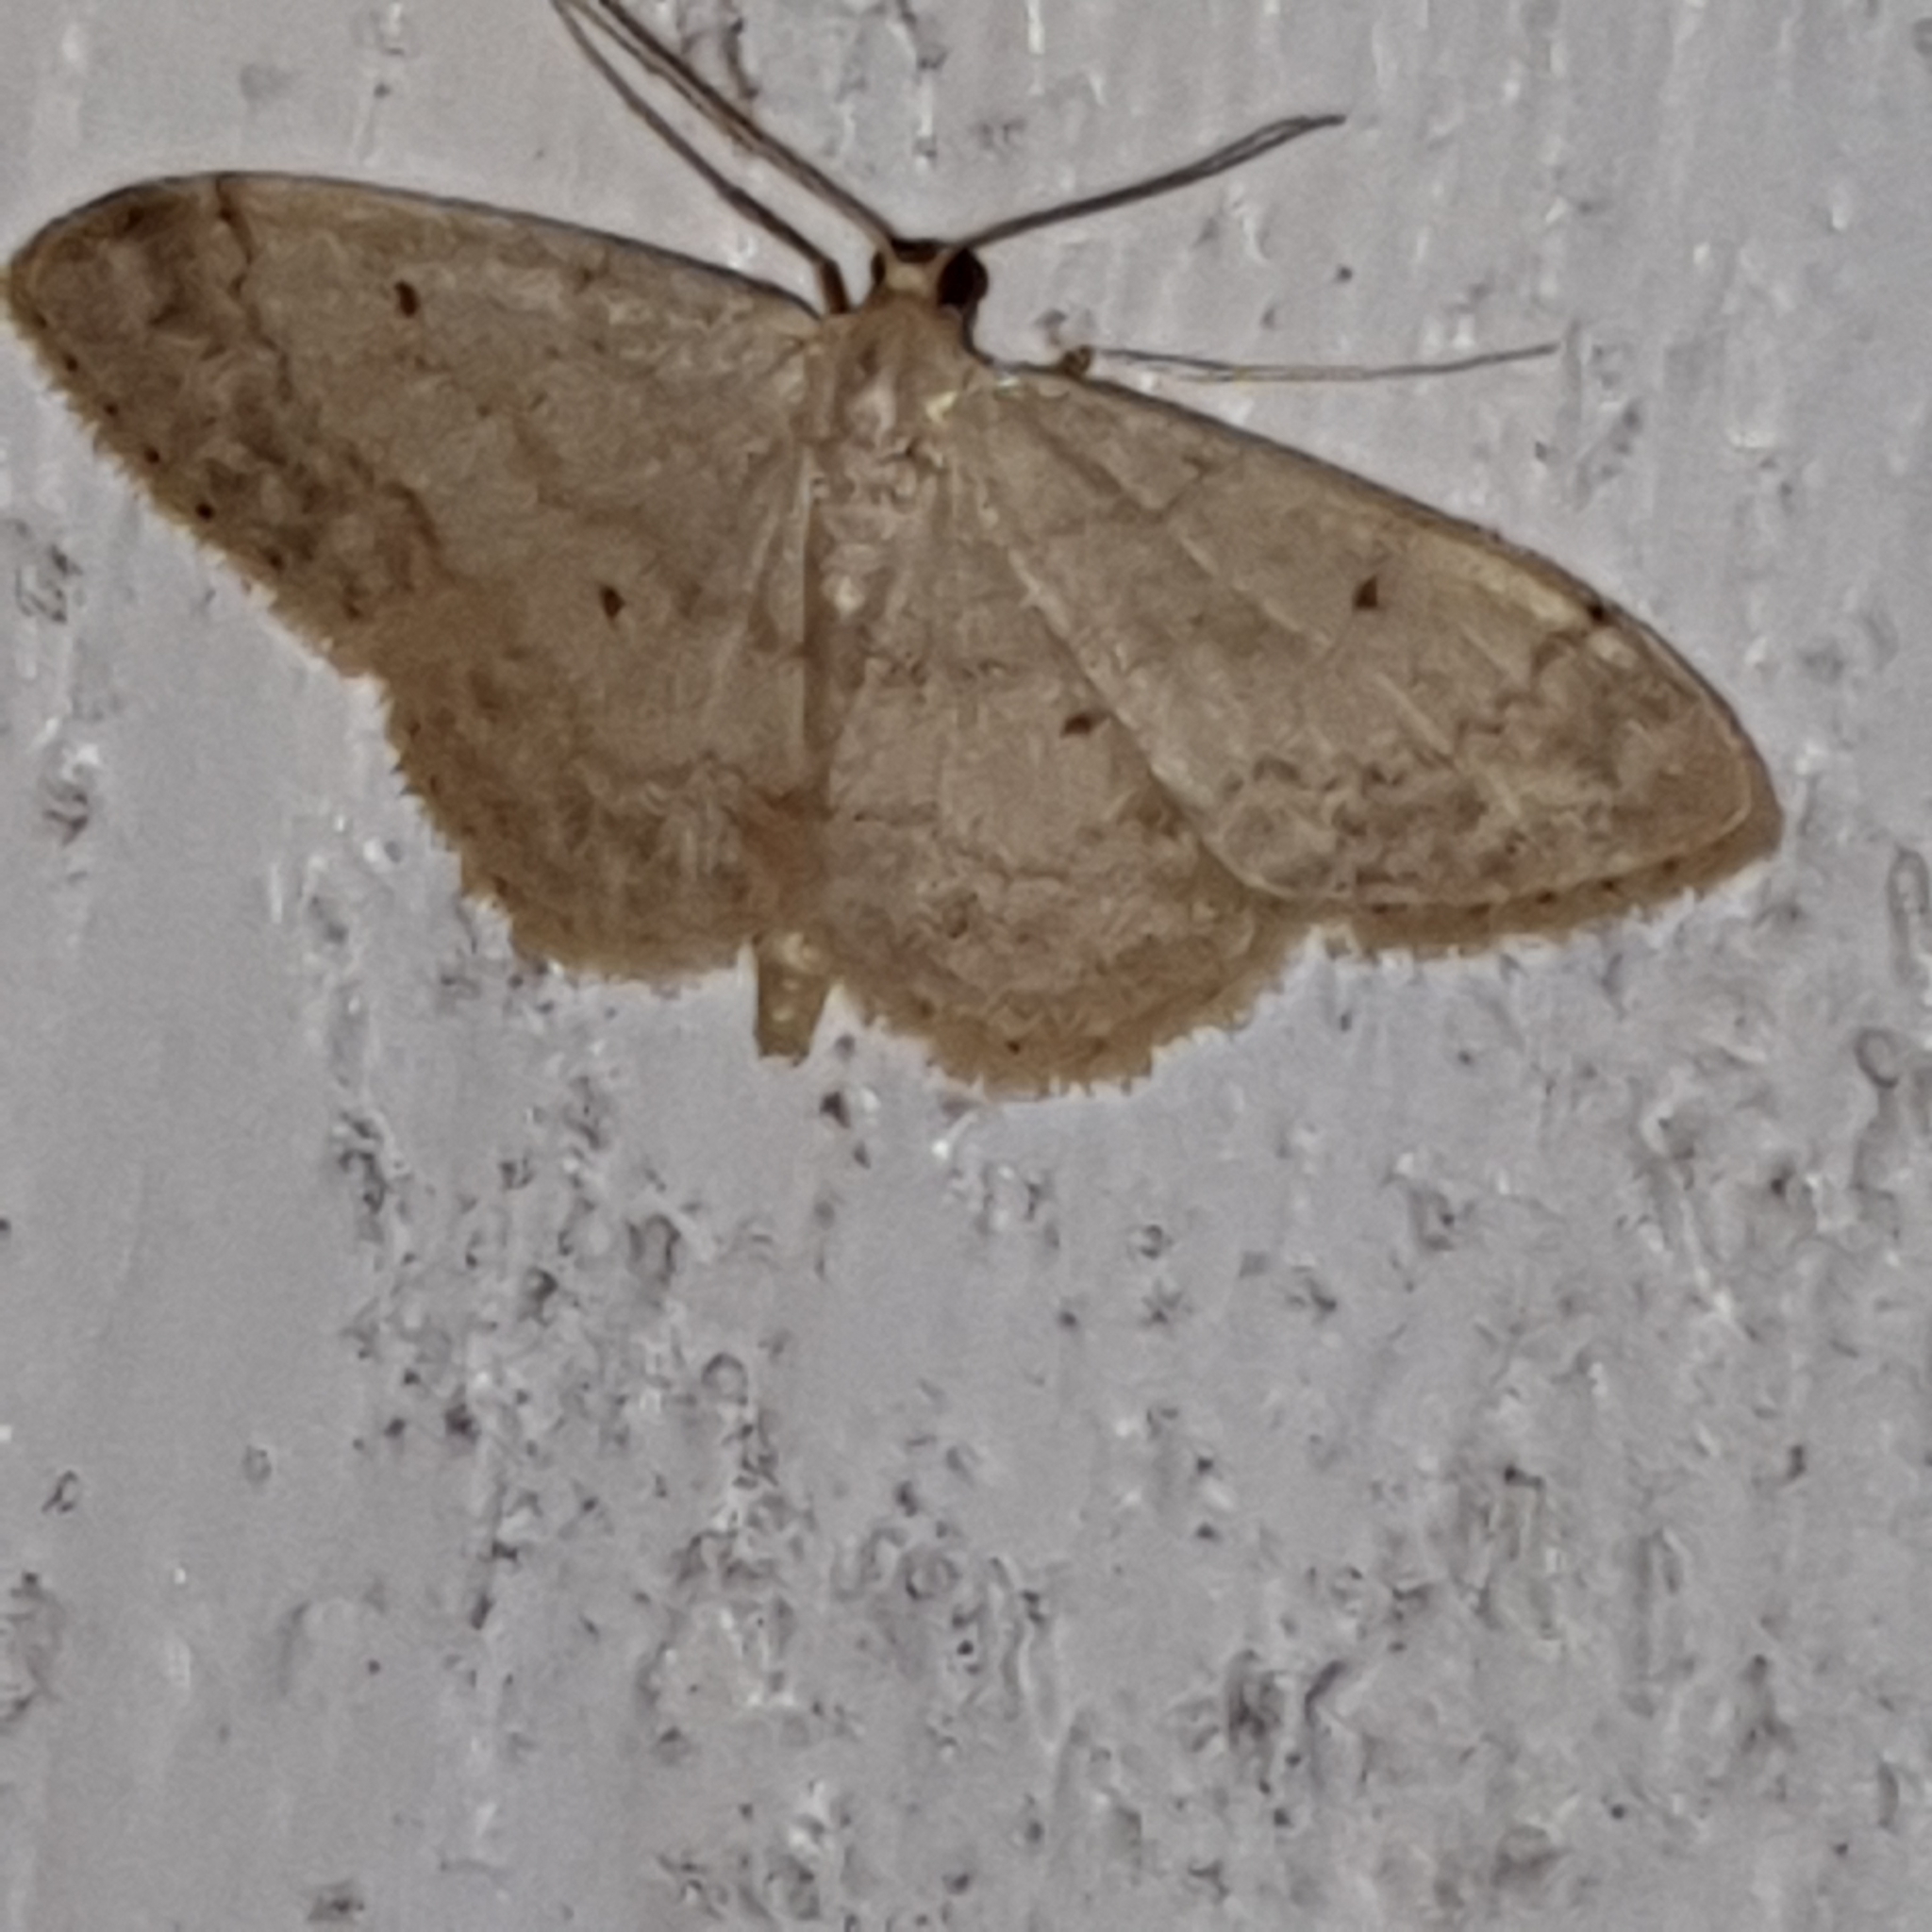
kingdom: Animalia
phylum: Arthropoda
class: Insecta
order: Lepidoptera
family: Geometridae
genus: Idaea
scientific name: Idaea biselata
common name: Small fan-footed wave
